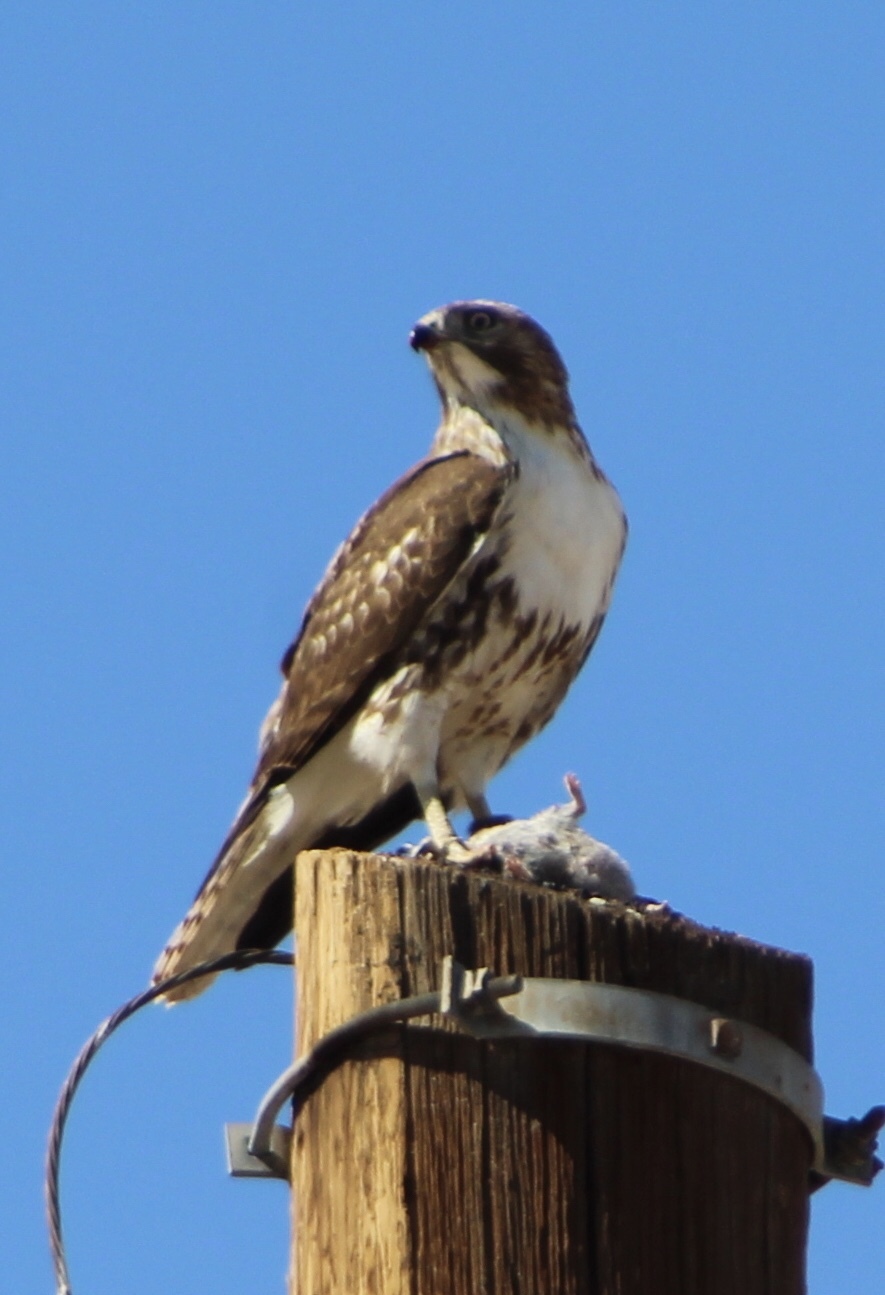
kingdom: Animalia
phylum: Chordata
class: Aves
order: Accipitriformes
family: Accipitridae
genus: Buteo
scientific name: Buteo jamaicensis
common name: Red-tailed hawk
